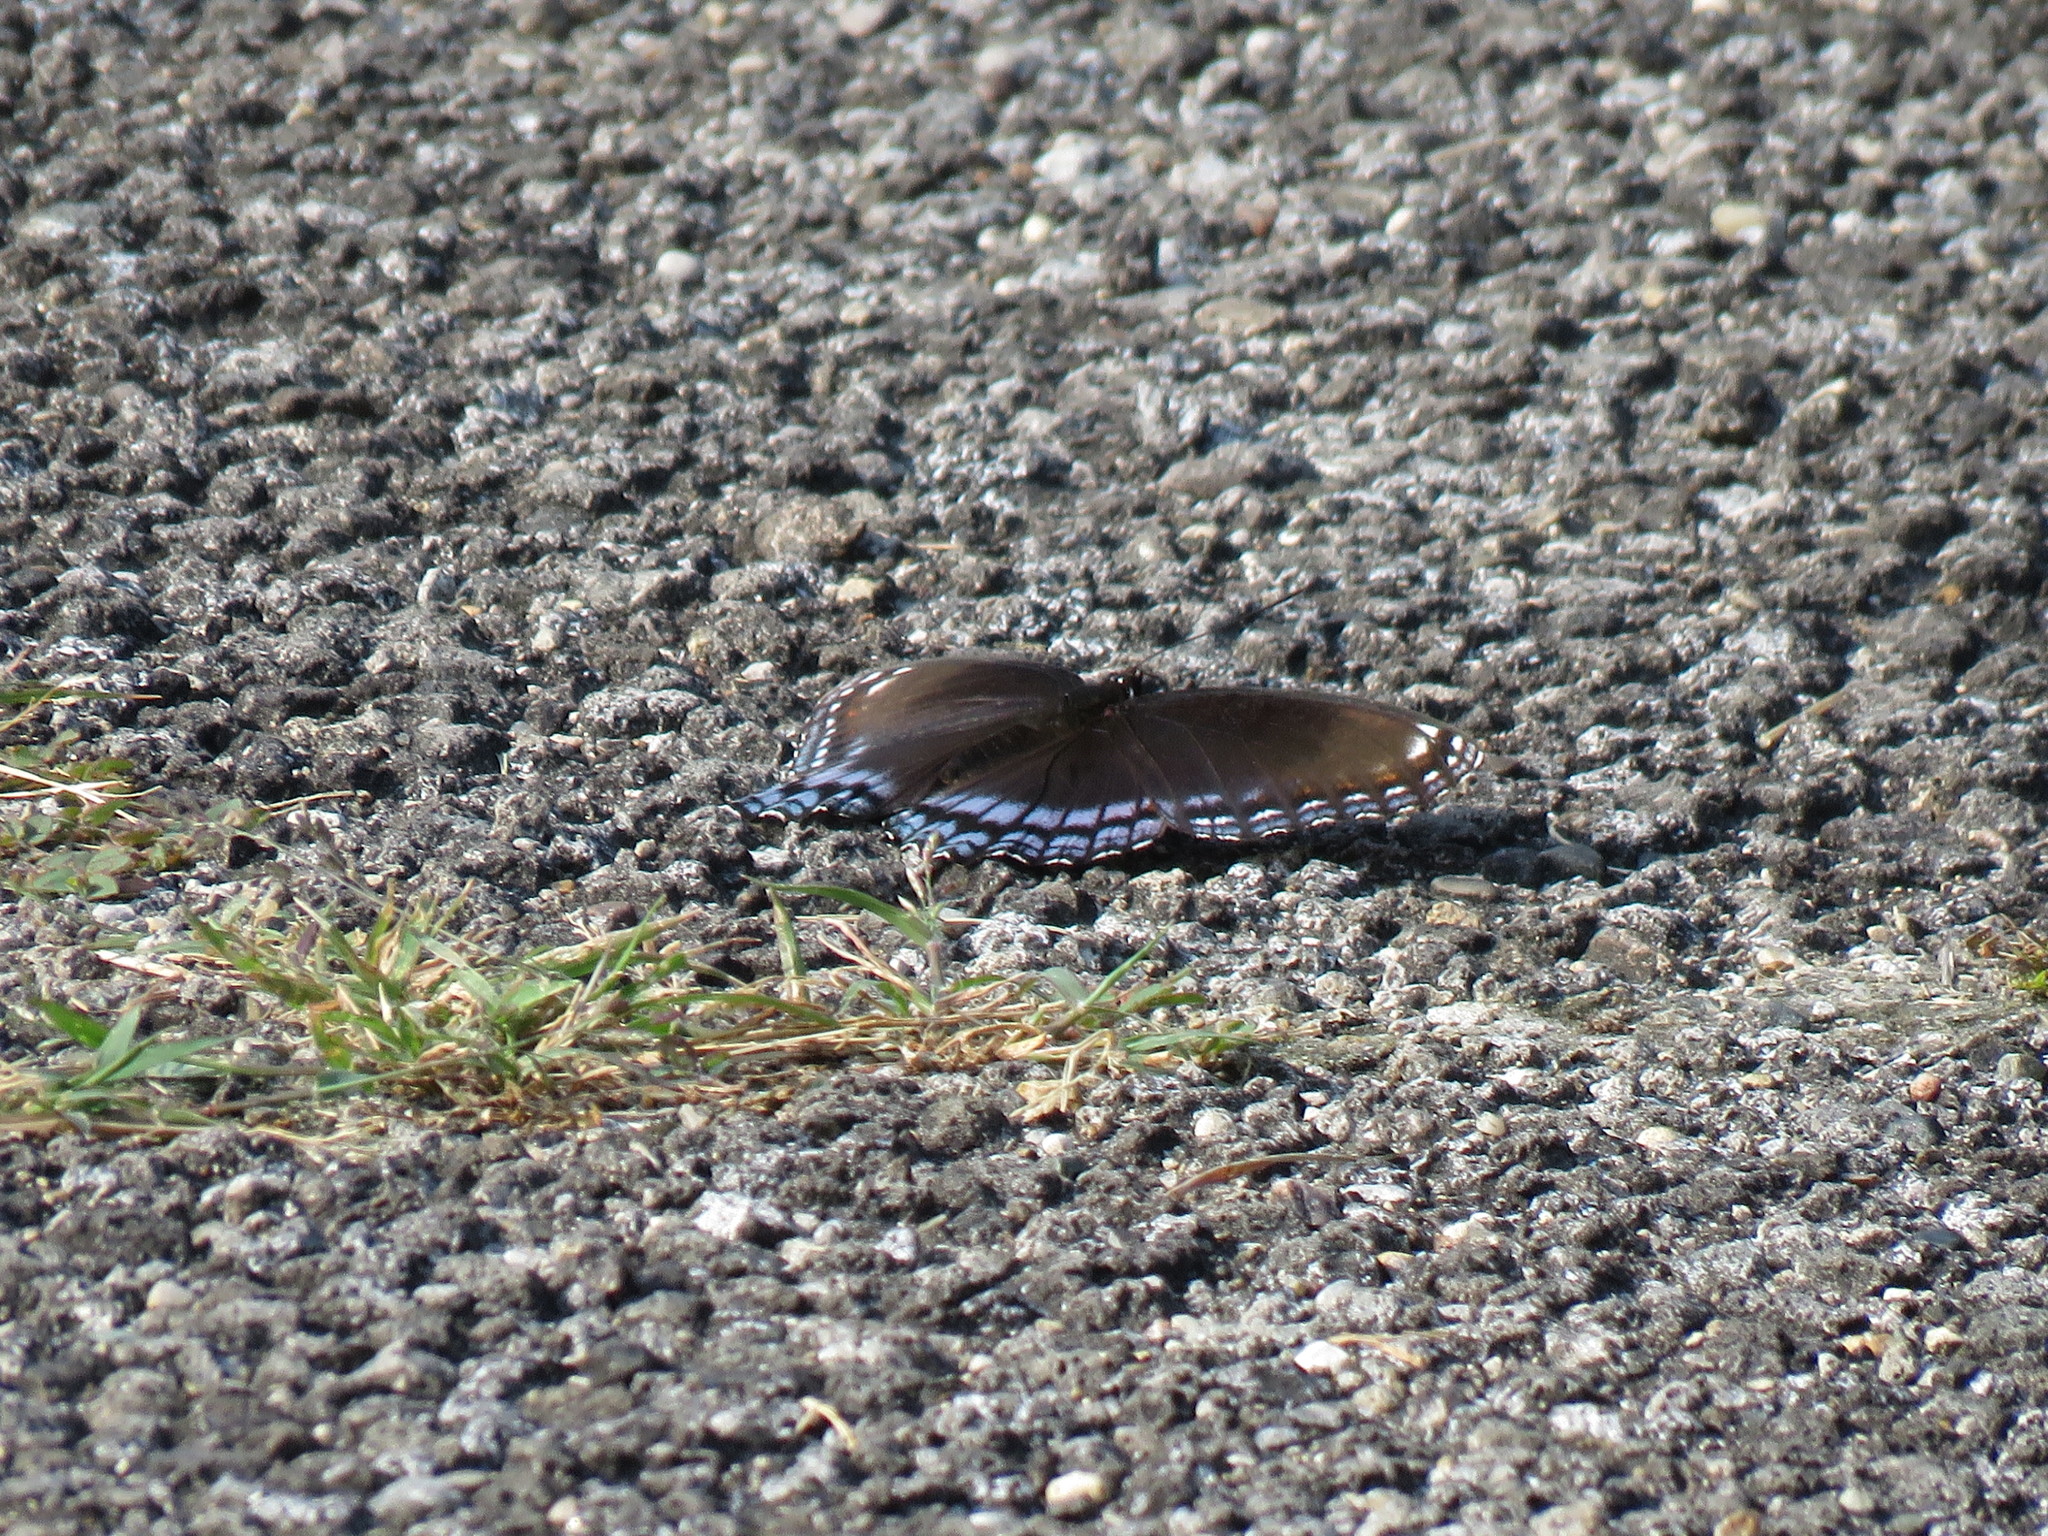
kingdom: Animalia
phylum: Arthropoda
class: Insecta
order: Lepidoptera
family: Nymphalidae
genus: Limenitis
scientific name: Limenitis astyanax
